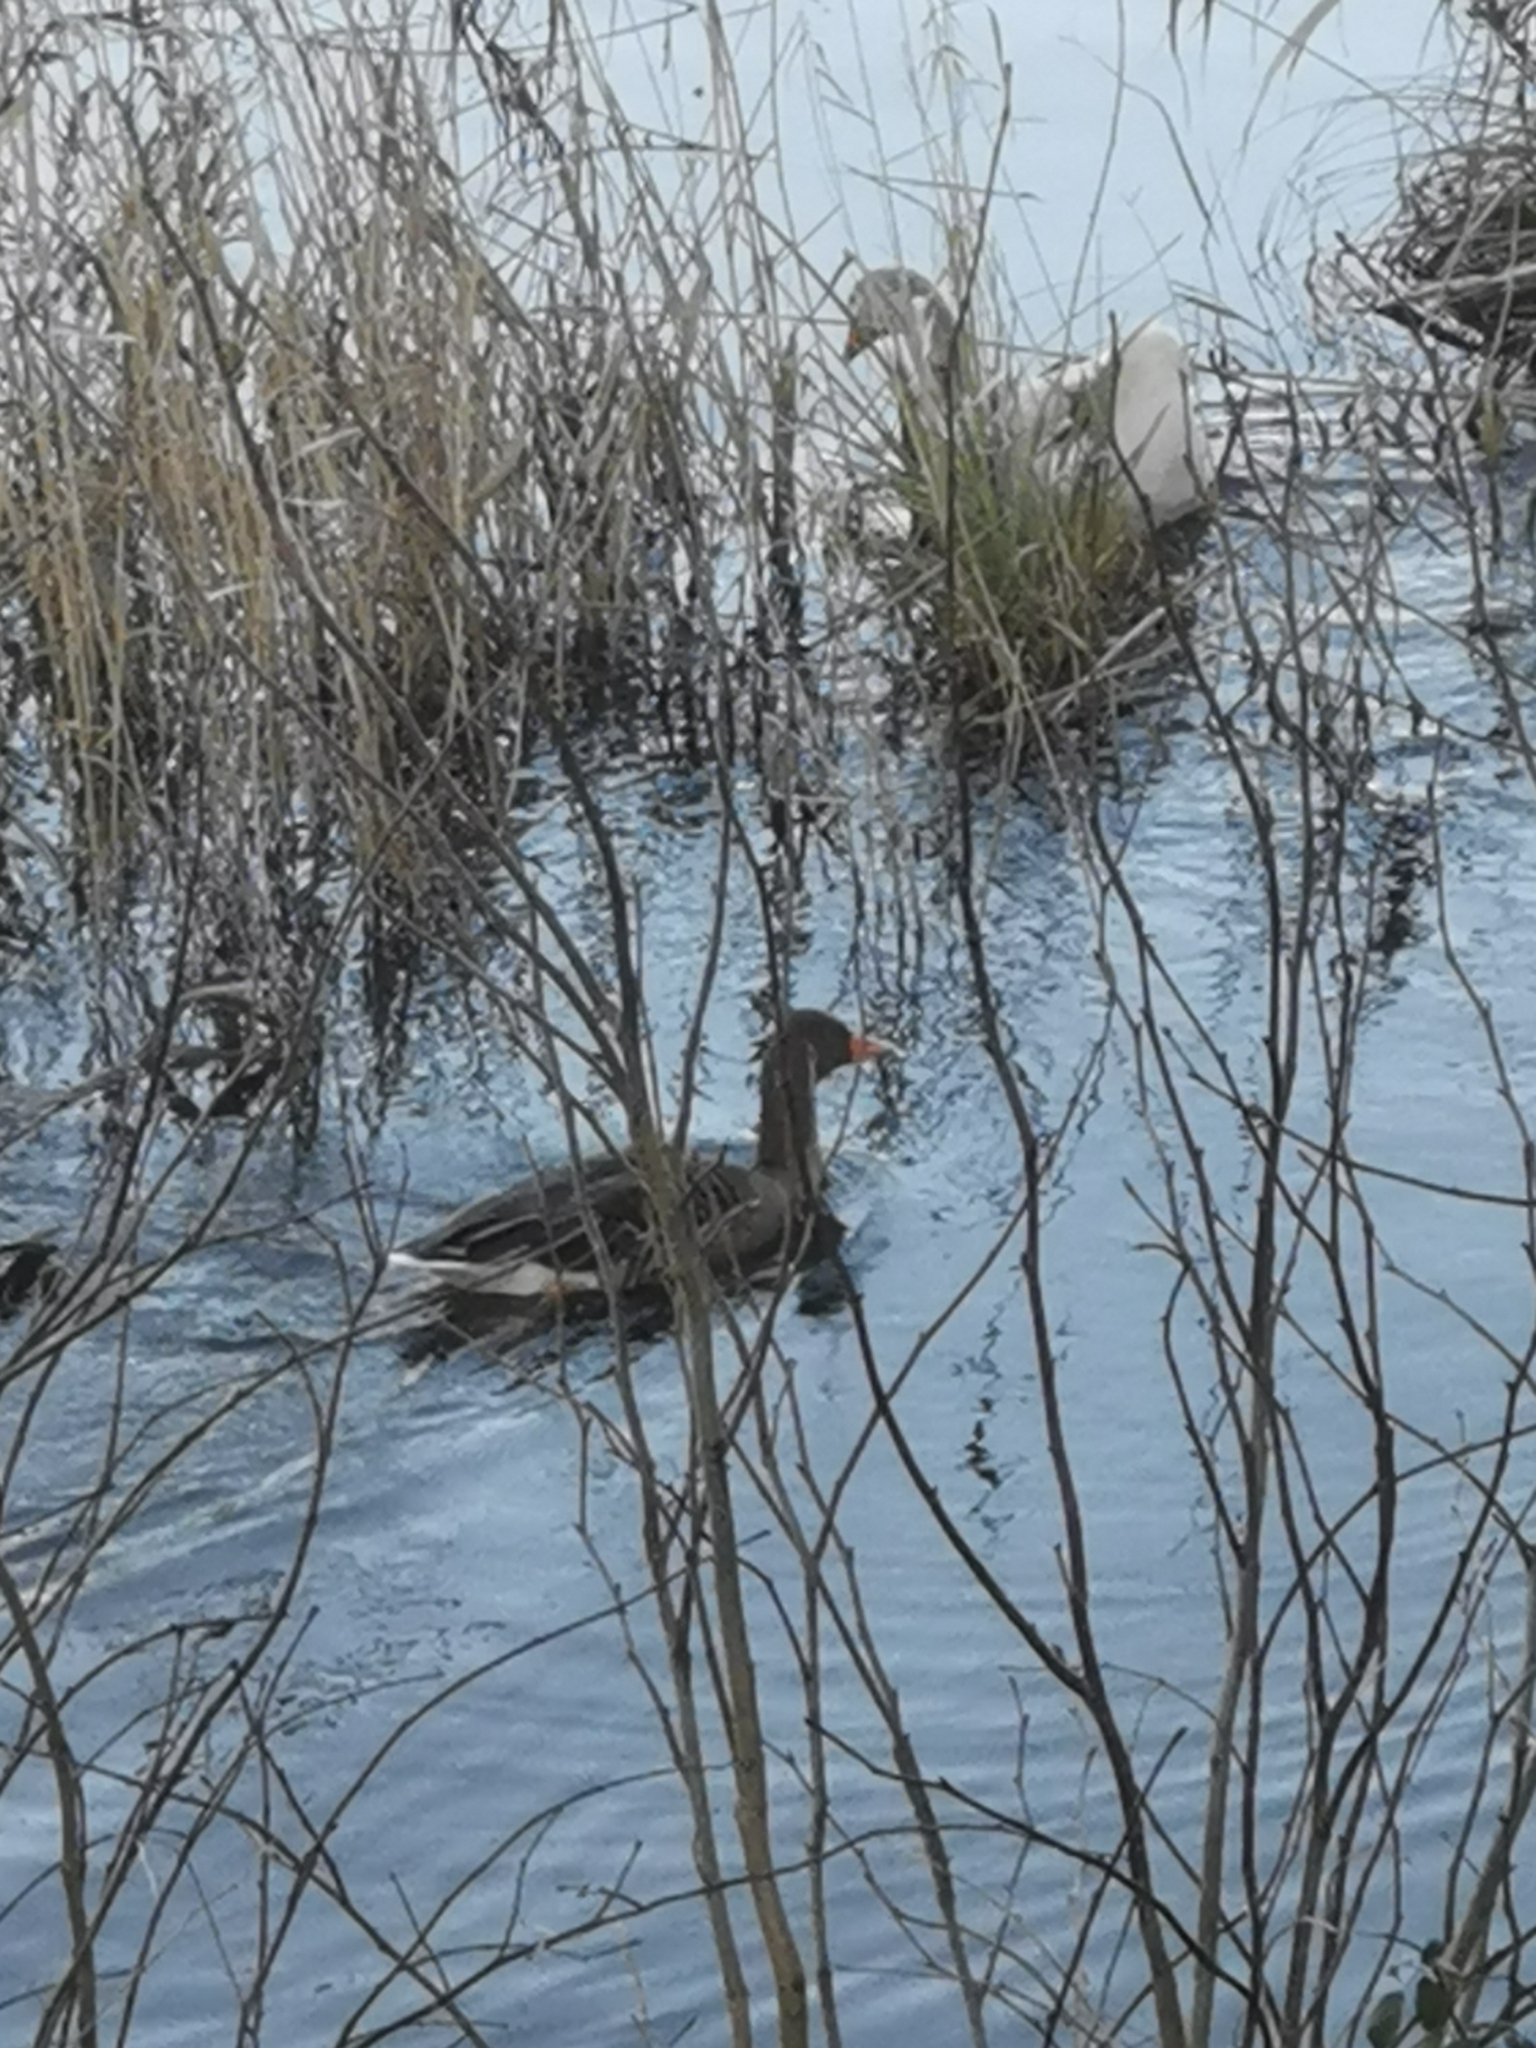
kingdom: Animalia
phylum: Chordata
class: Aves
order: Anseriformes
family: Anatidae
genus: Anser
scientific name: Anser anser
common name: Greylag goose
